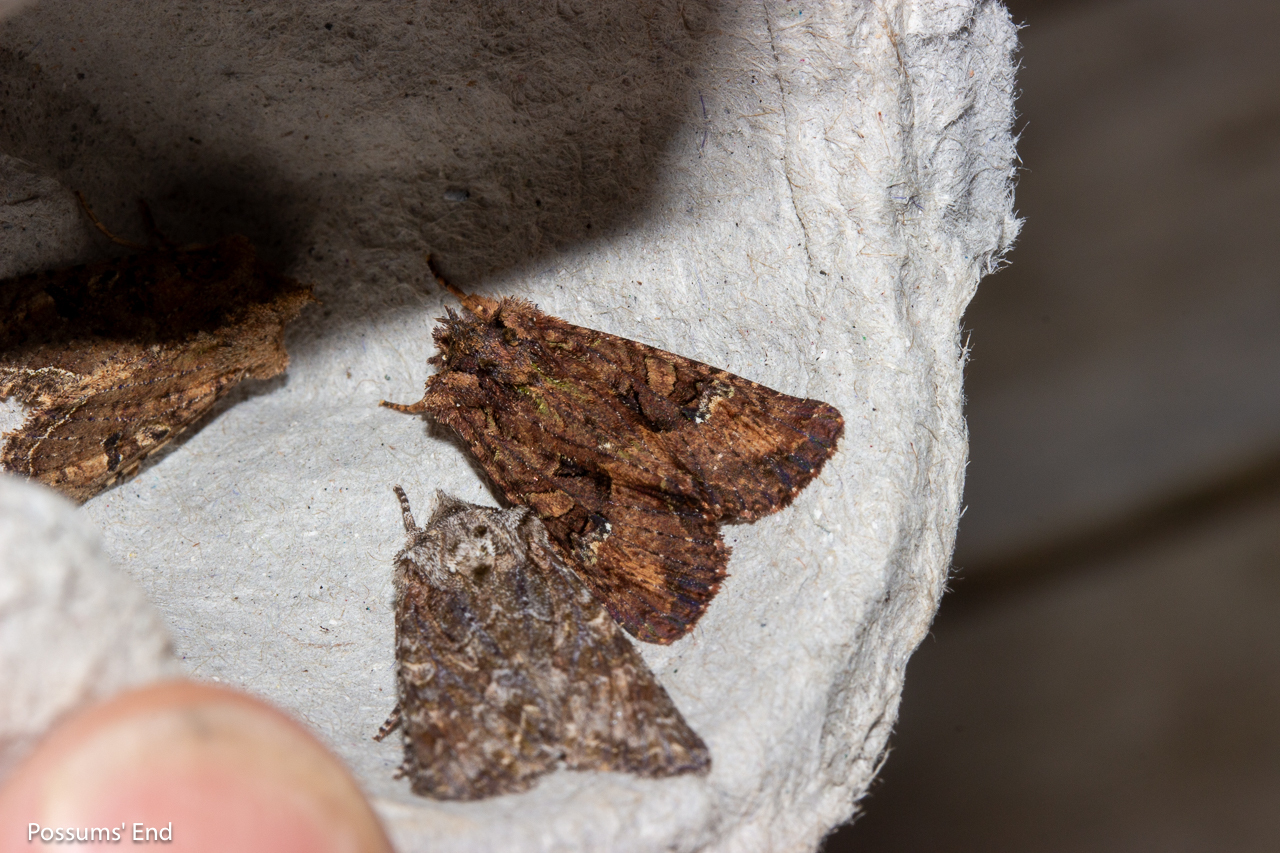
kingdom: Animalia
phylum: Arthropoda
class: Insecta
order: Lepidoptera
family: Noctuidae
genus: Meterana
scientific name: Meterana ochthistis
